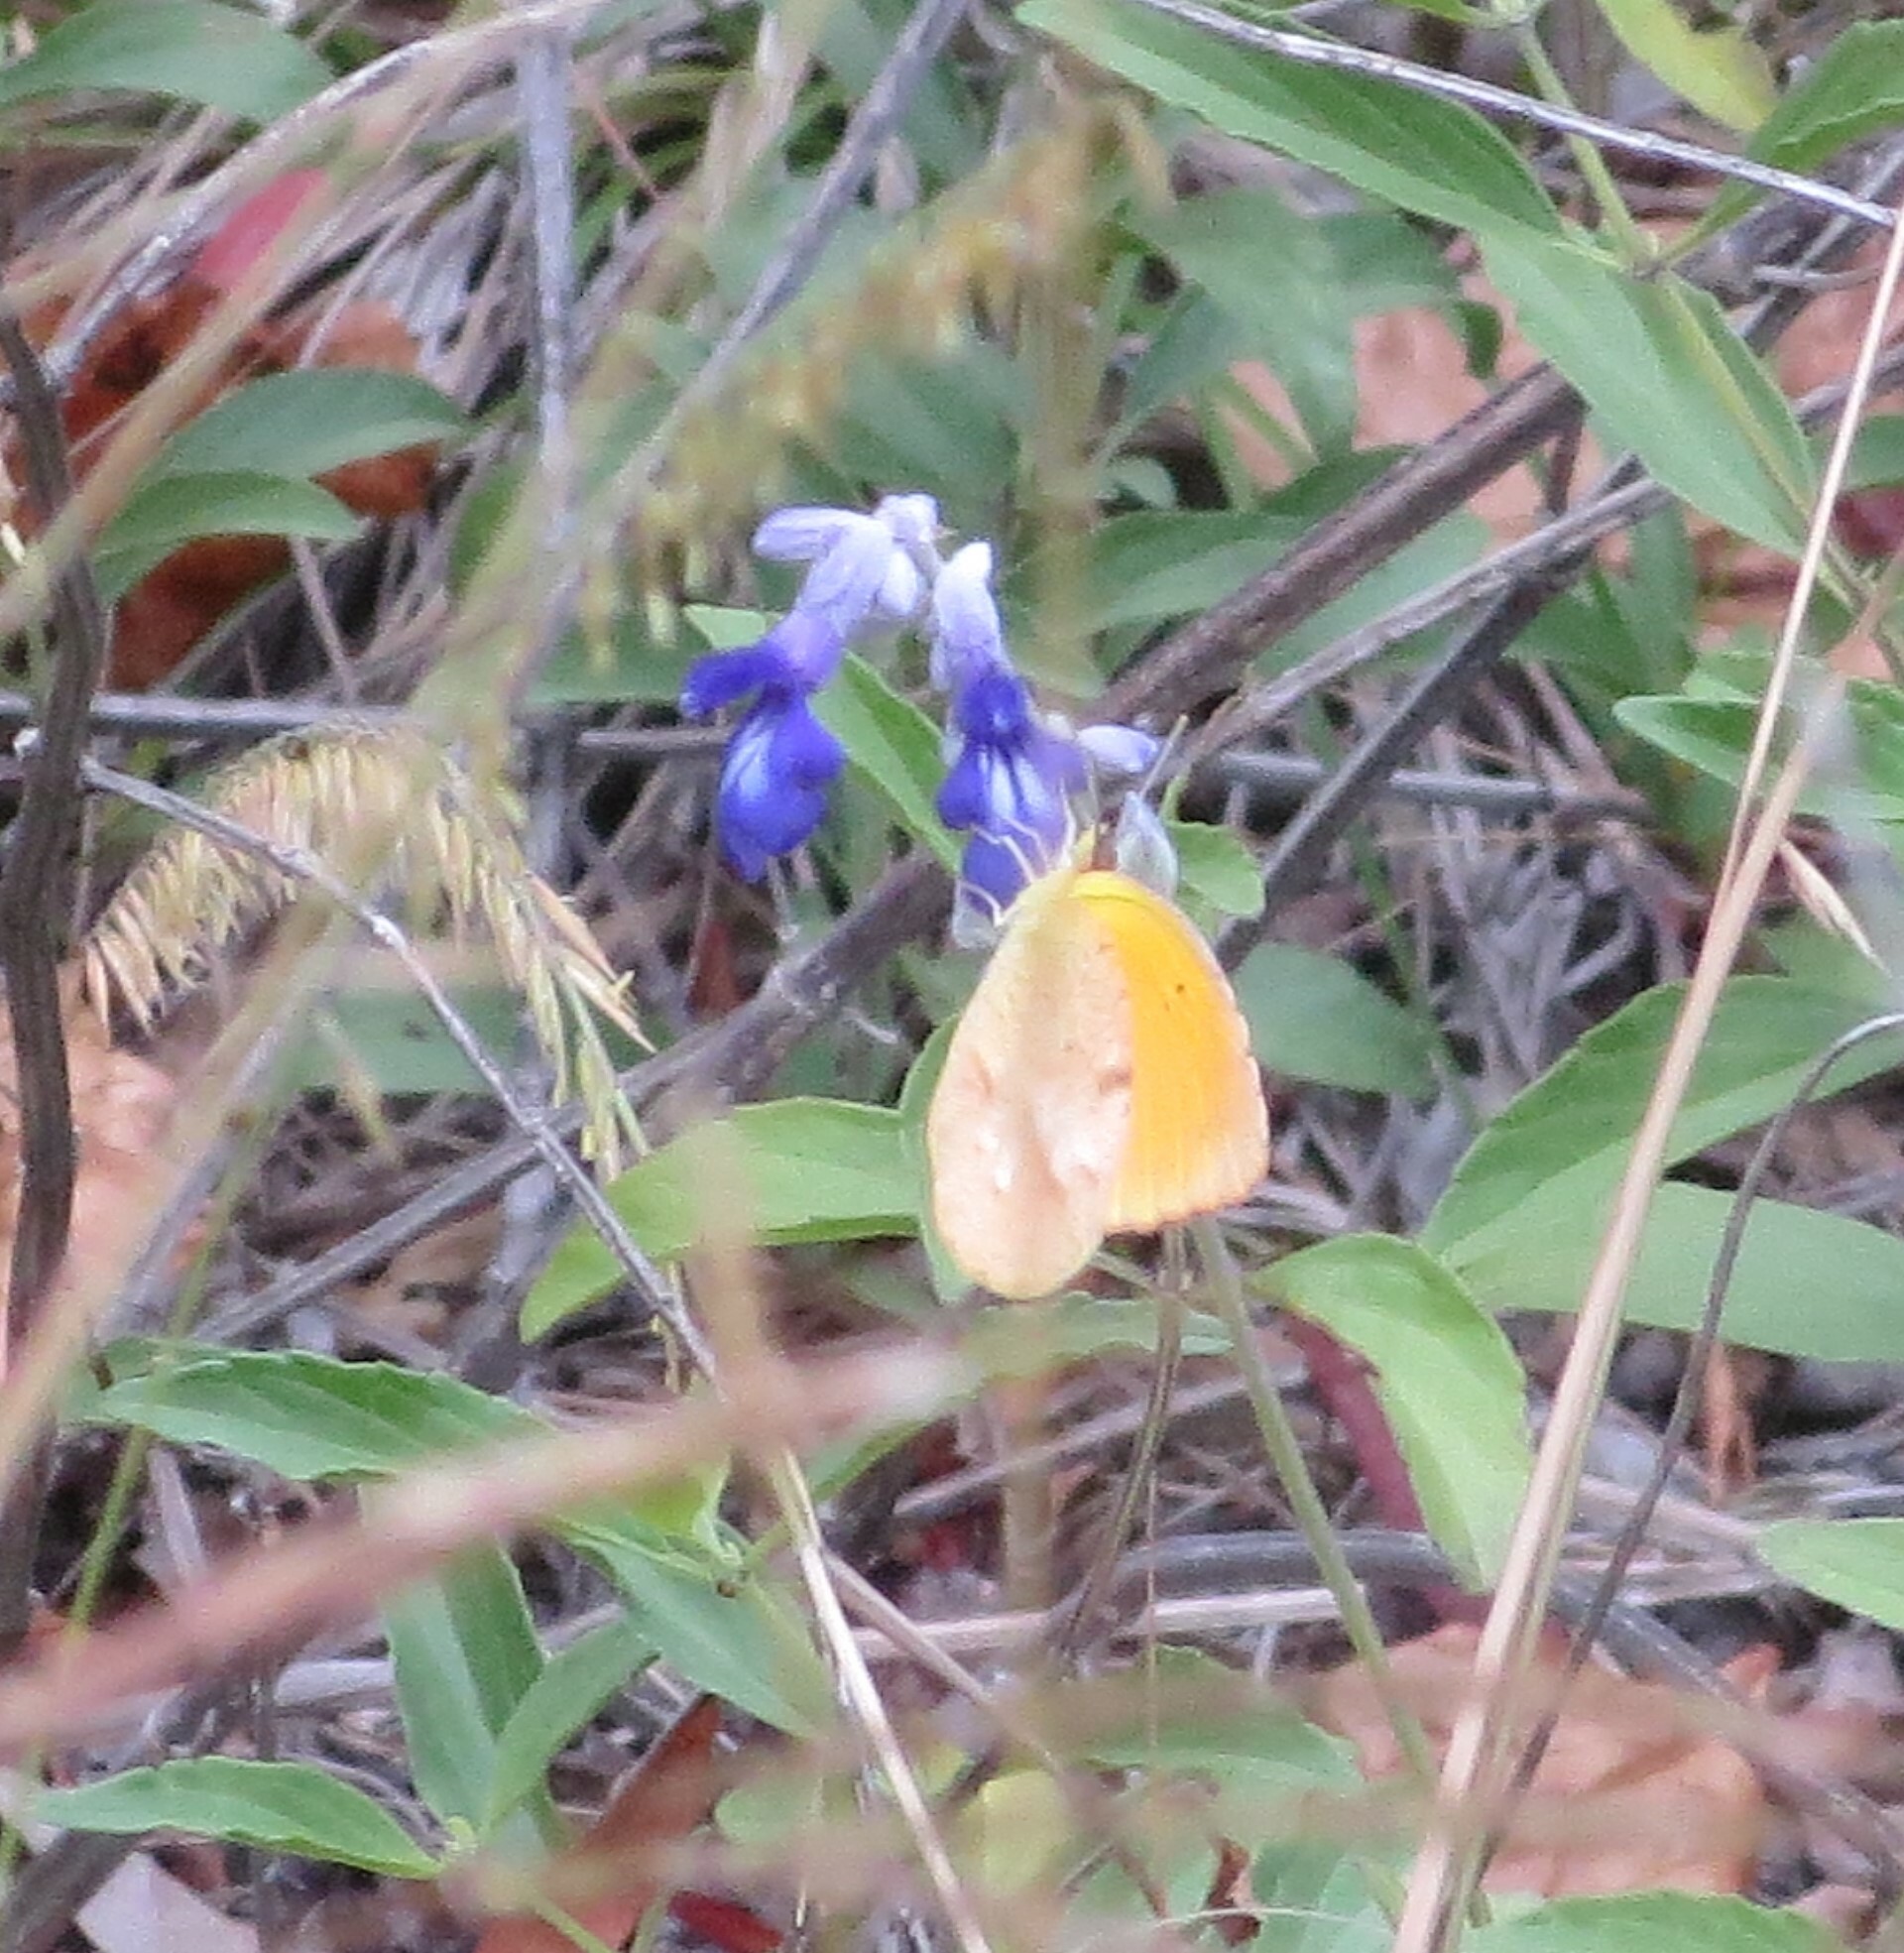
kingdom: Animalia
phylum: Arthropoda
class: Insecta
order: Lepidoptera
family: Pieridae
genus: Abaeis
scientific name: Abaeis nicippe
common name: Sleepy orange
